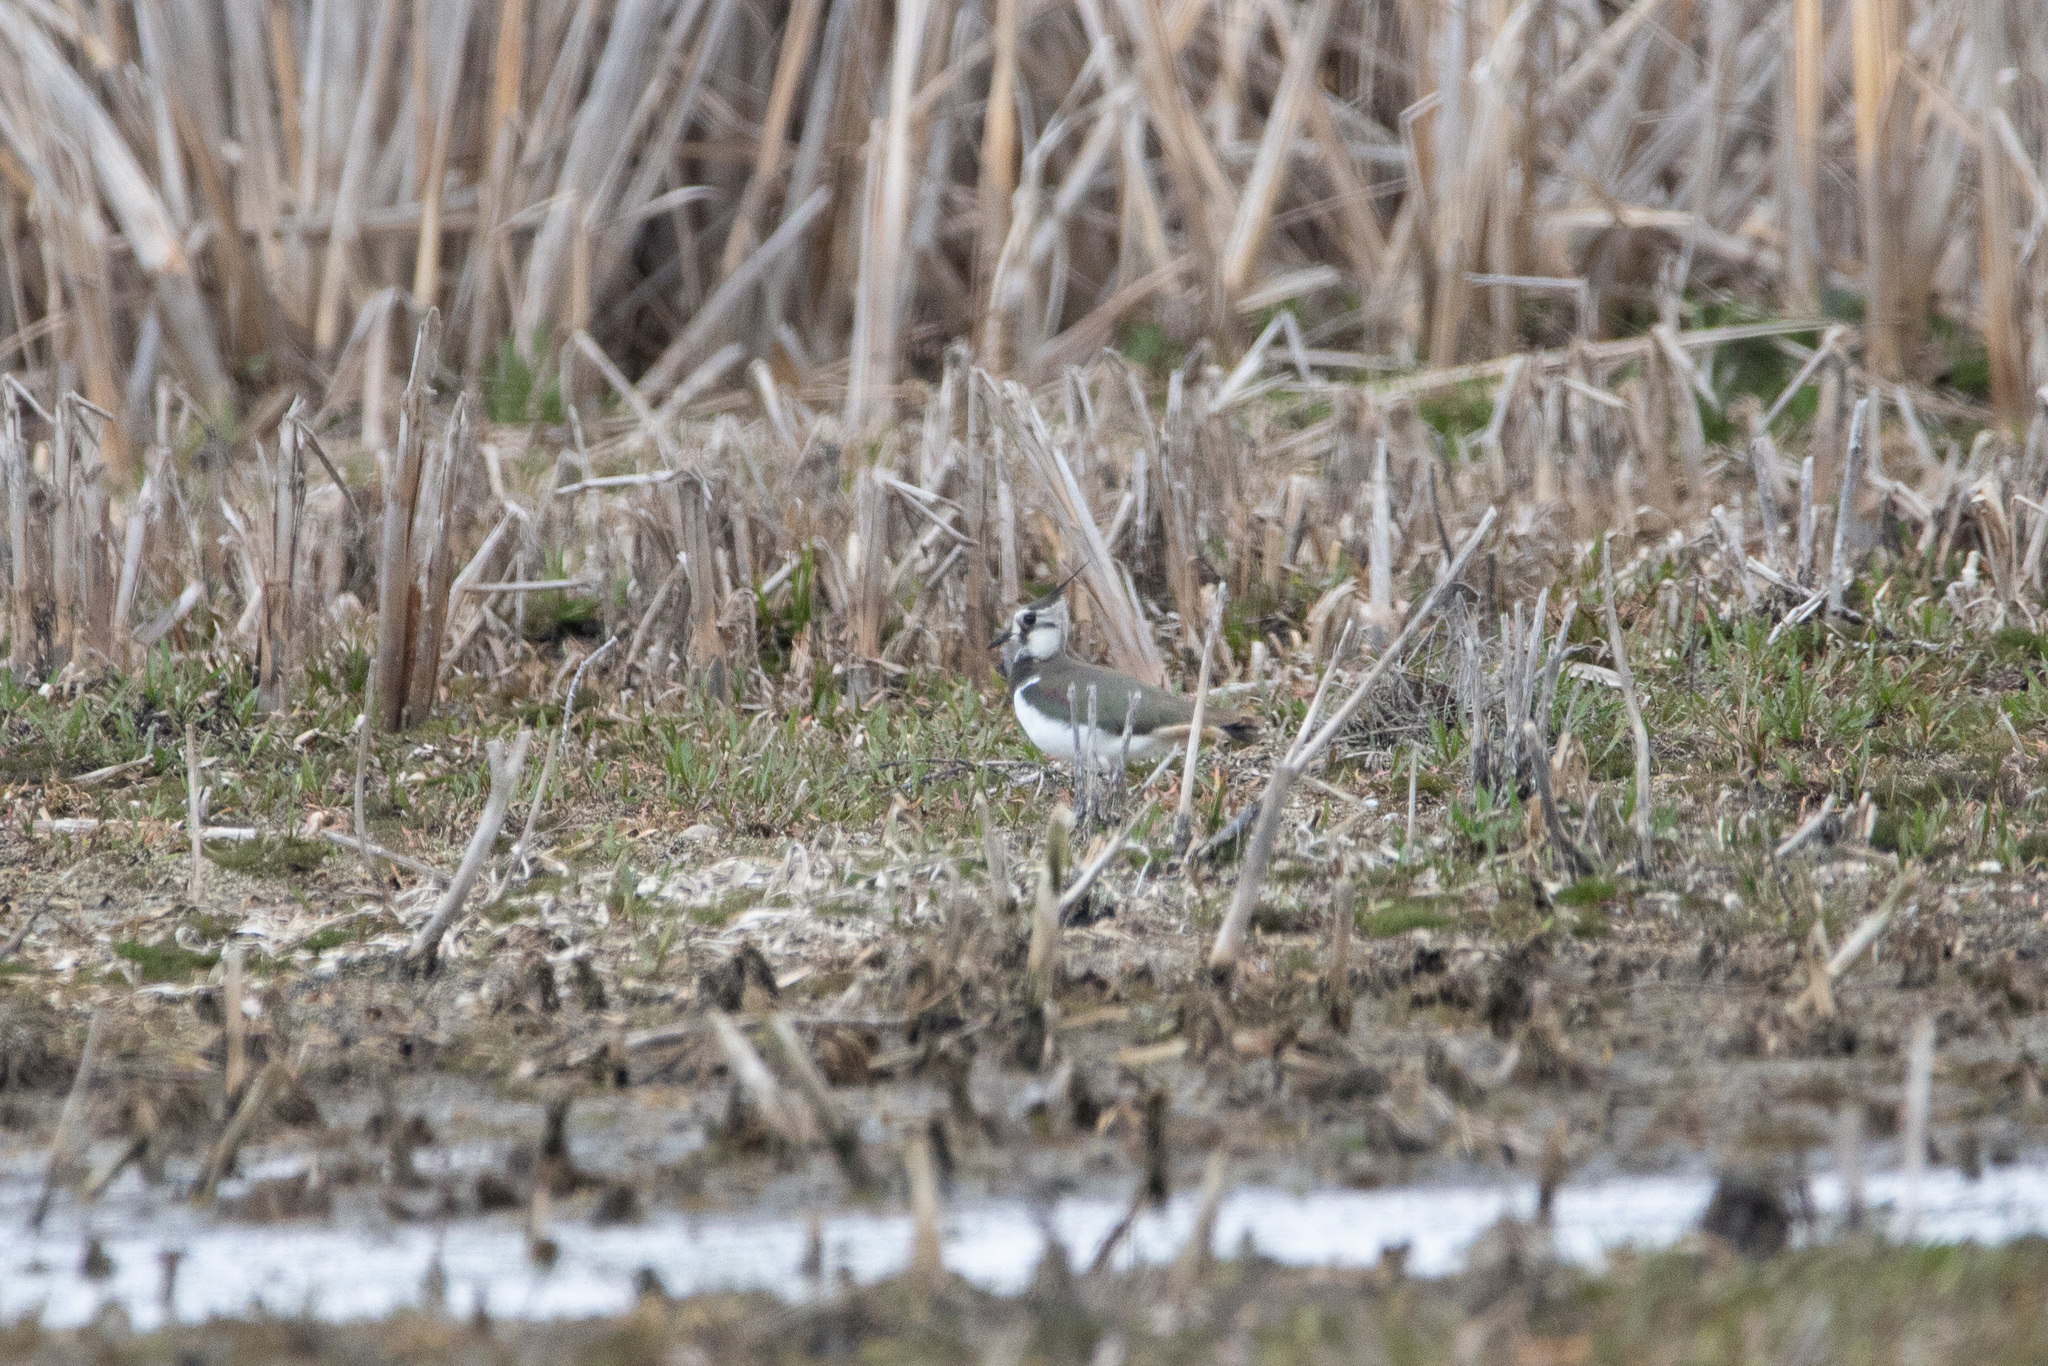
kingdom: Animalia
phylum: Chordata
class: Aves
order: Charadriiformes
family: Charadriidae
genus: Vanellus
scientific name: Vanellus vanellus
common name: Northern lapwing
